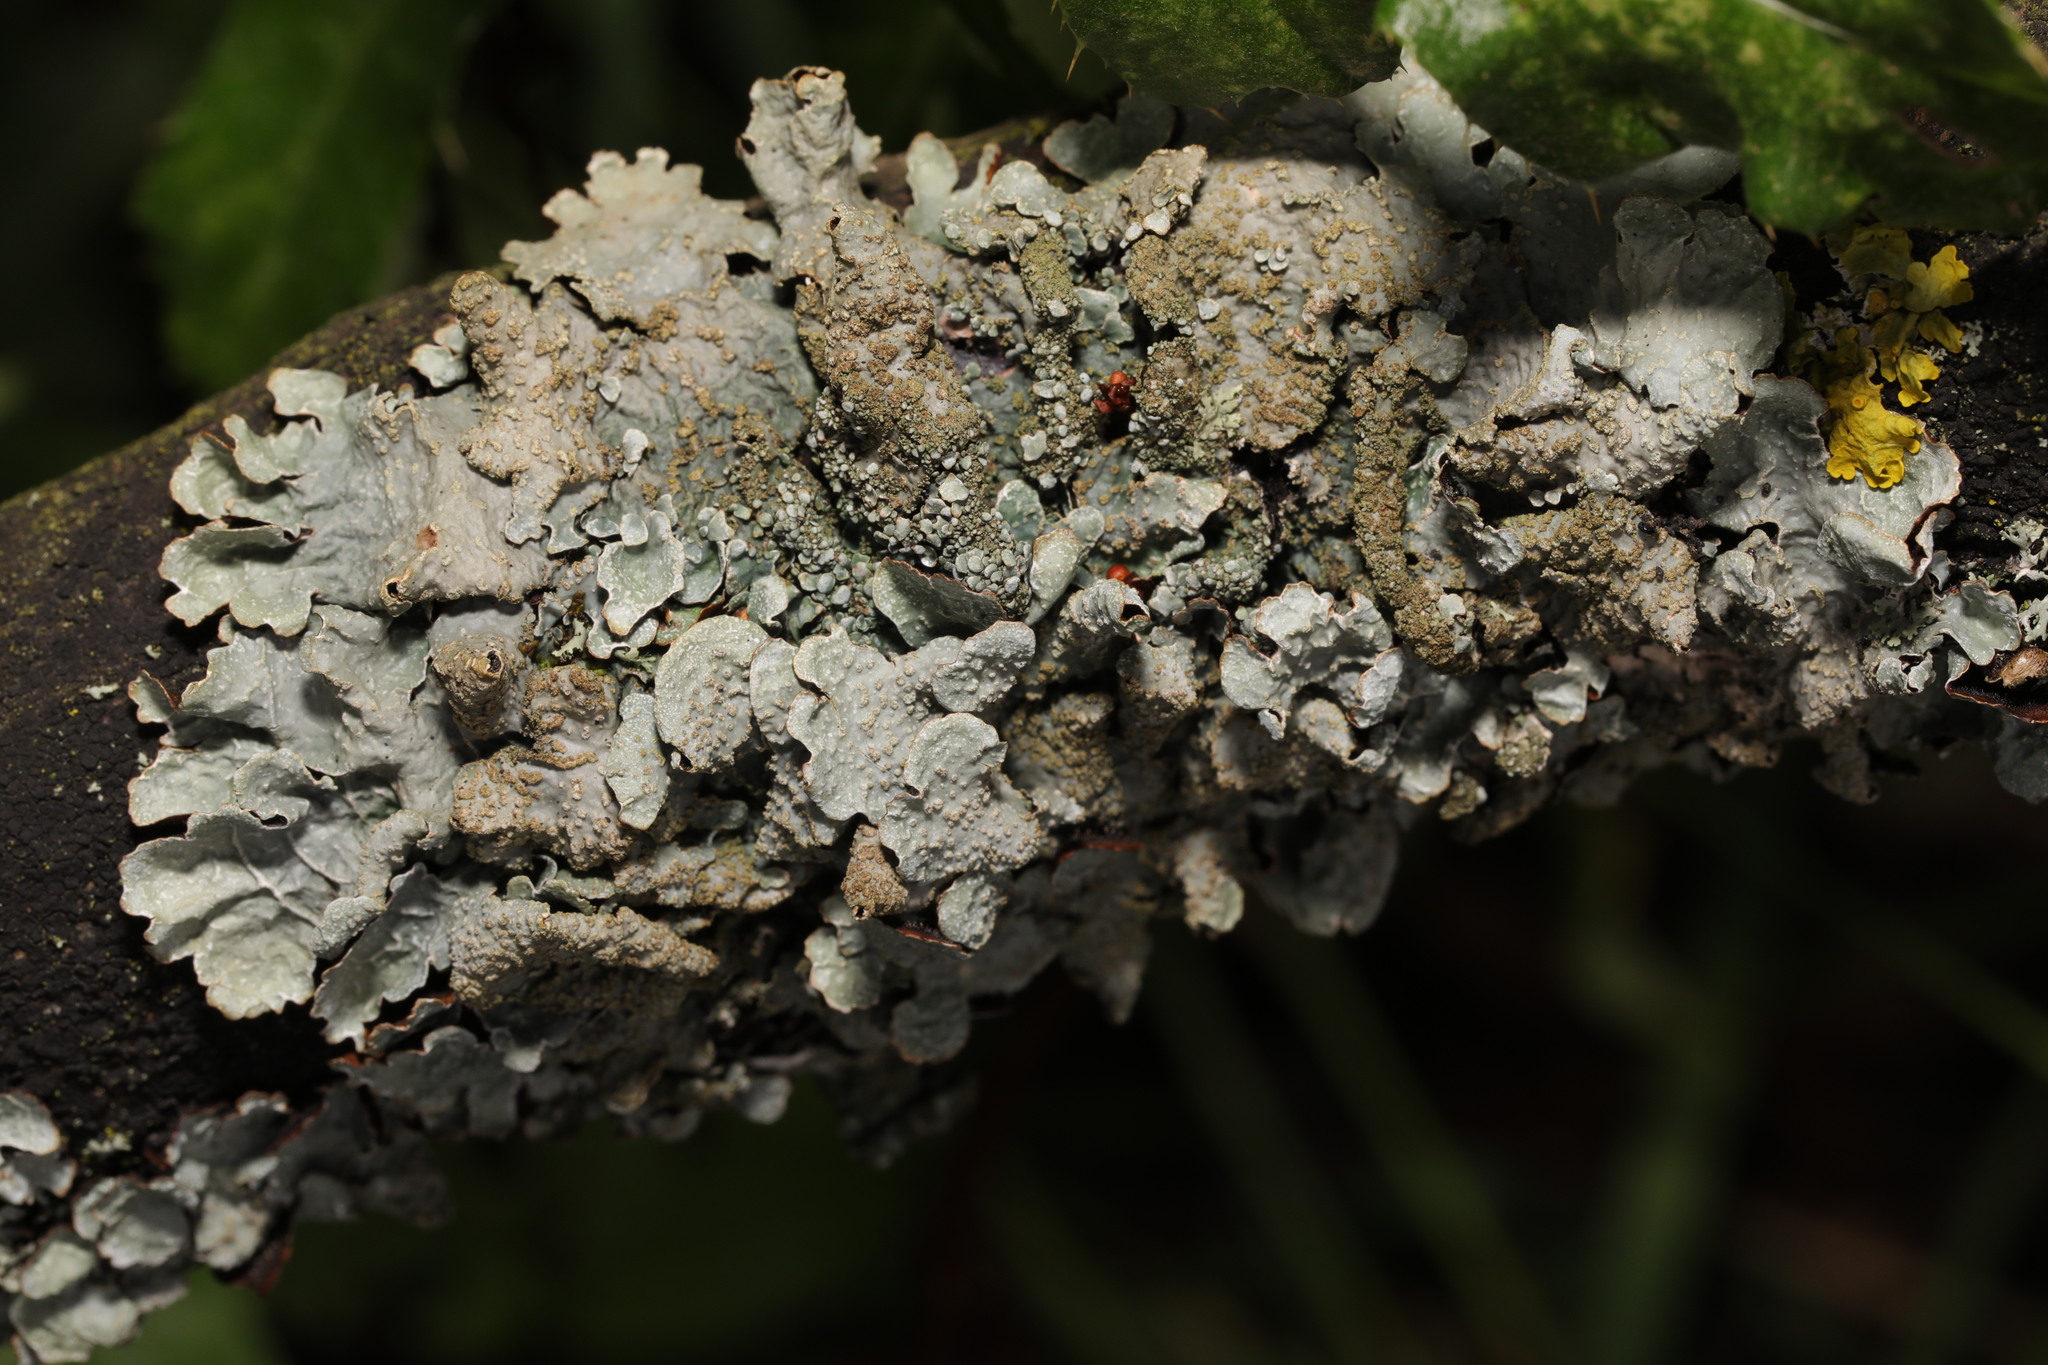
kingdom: Fungi
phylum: Ascomycota
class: Lecanoromycetes
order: Lecanorales
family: Parmeliaceae
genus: Parmelia
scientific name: Parmelia sulcata
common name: Netted shield lichen
